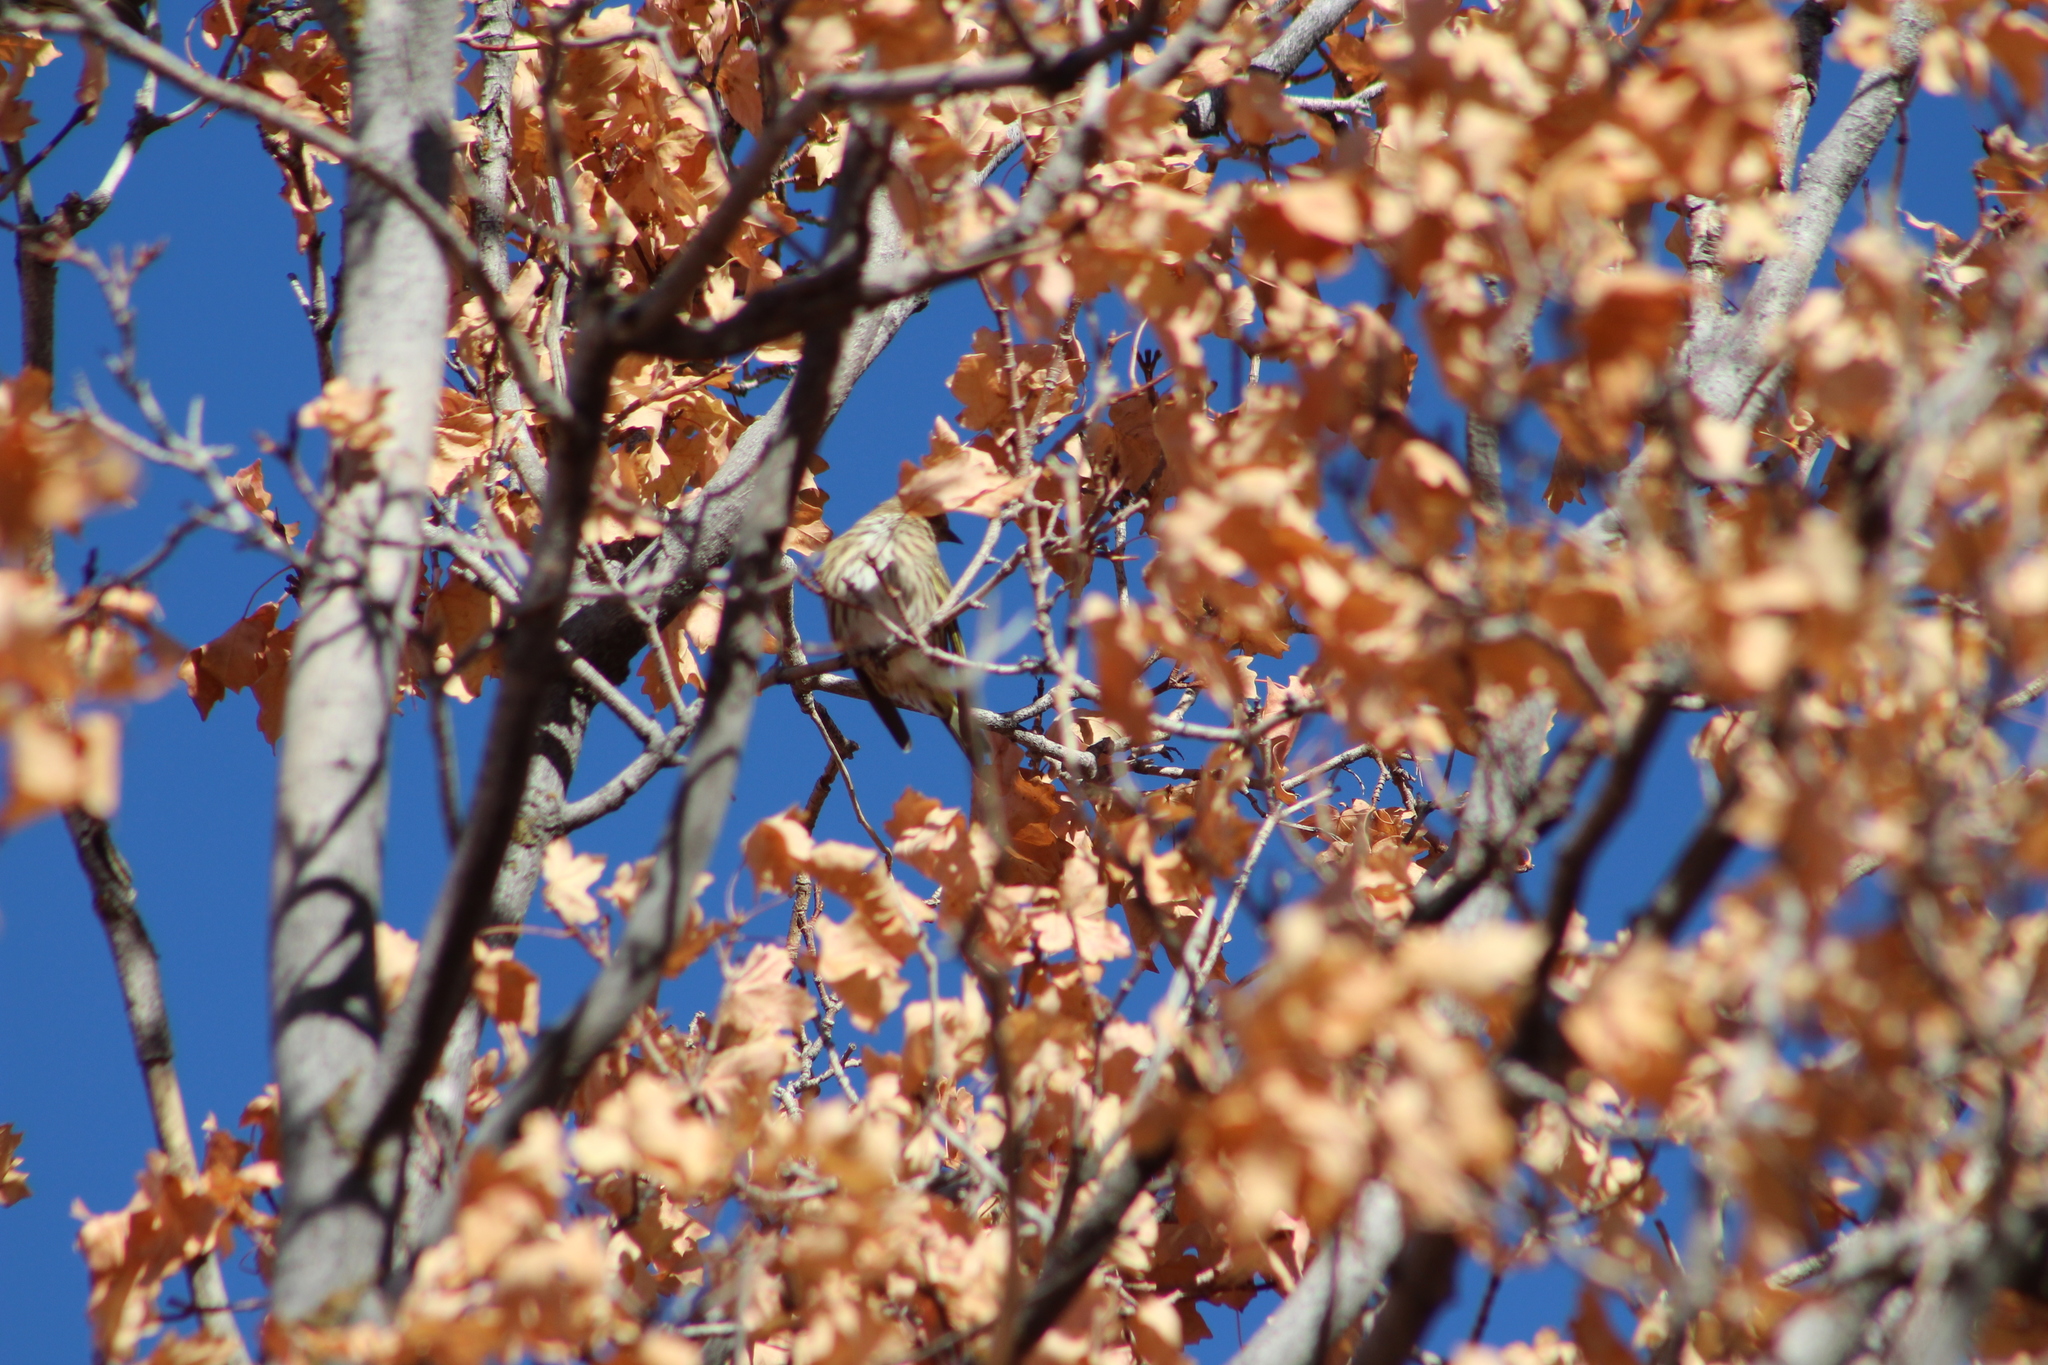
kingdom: Animalia
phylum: Chordata
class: Aves
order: Passeriformes
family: Fringillidae
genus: Spinus
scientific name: Spinus pinus
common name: Pine siskin
